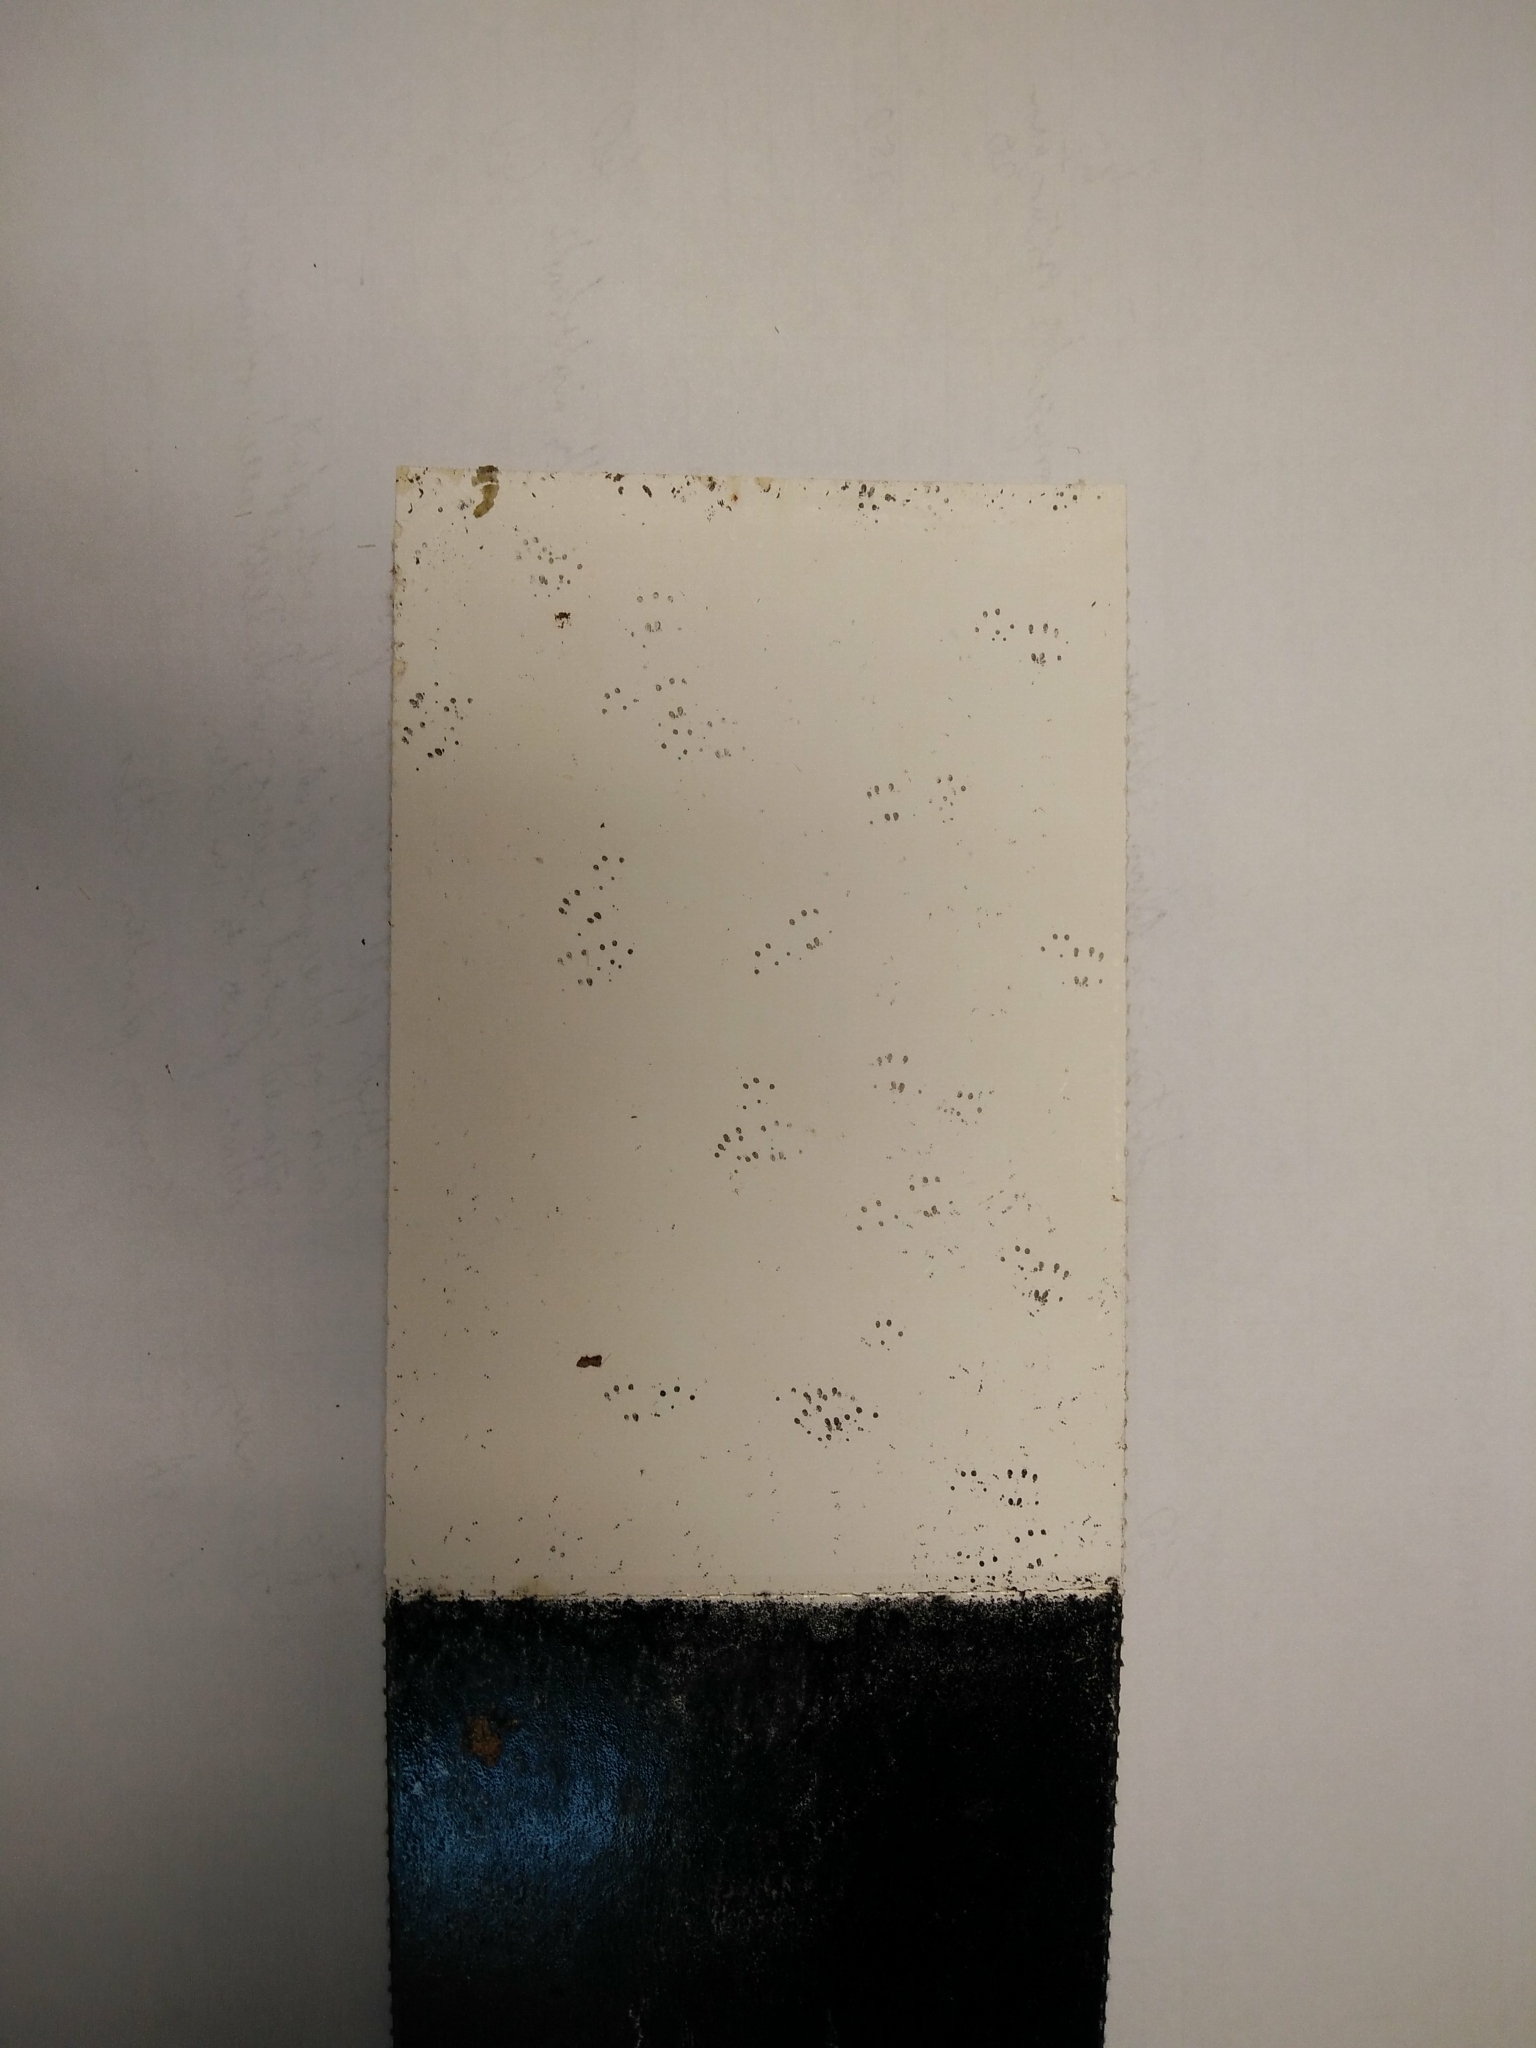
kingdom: Animalia
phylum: Chordata
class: Mammalia
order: Rodentia
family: Muridae
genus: Mus
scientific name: Mus musculus
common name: House mouse
